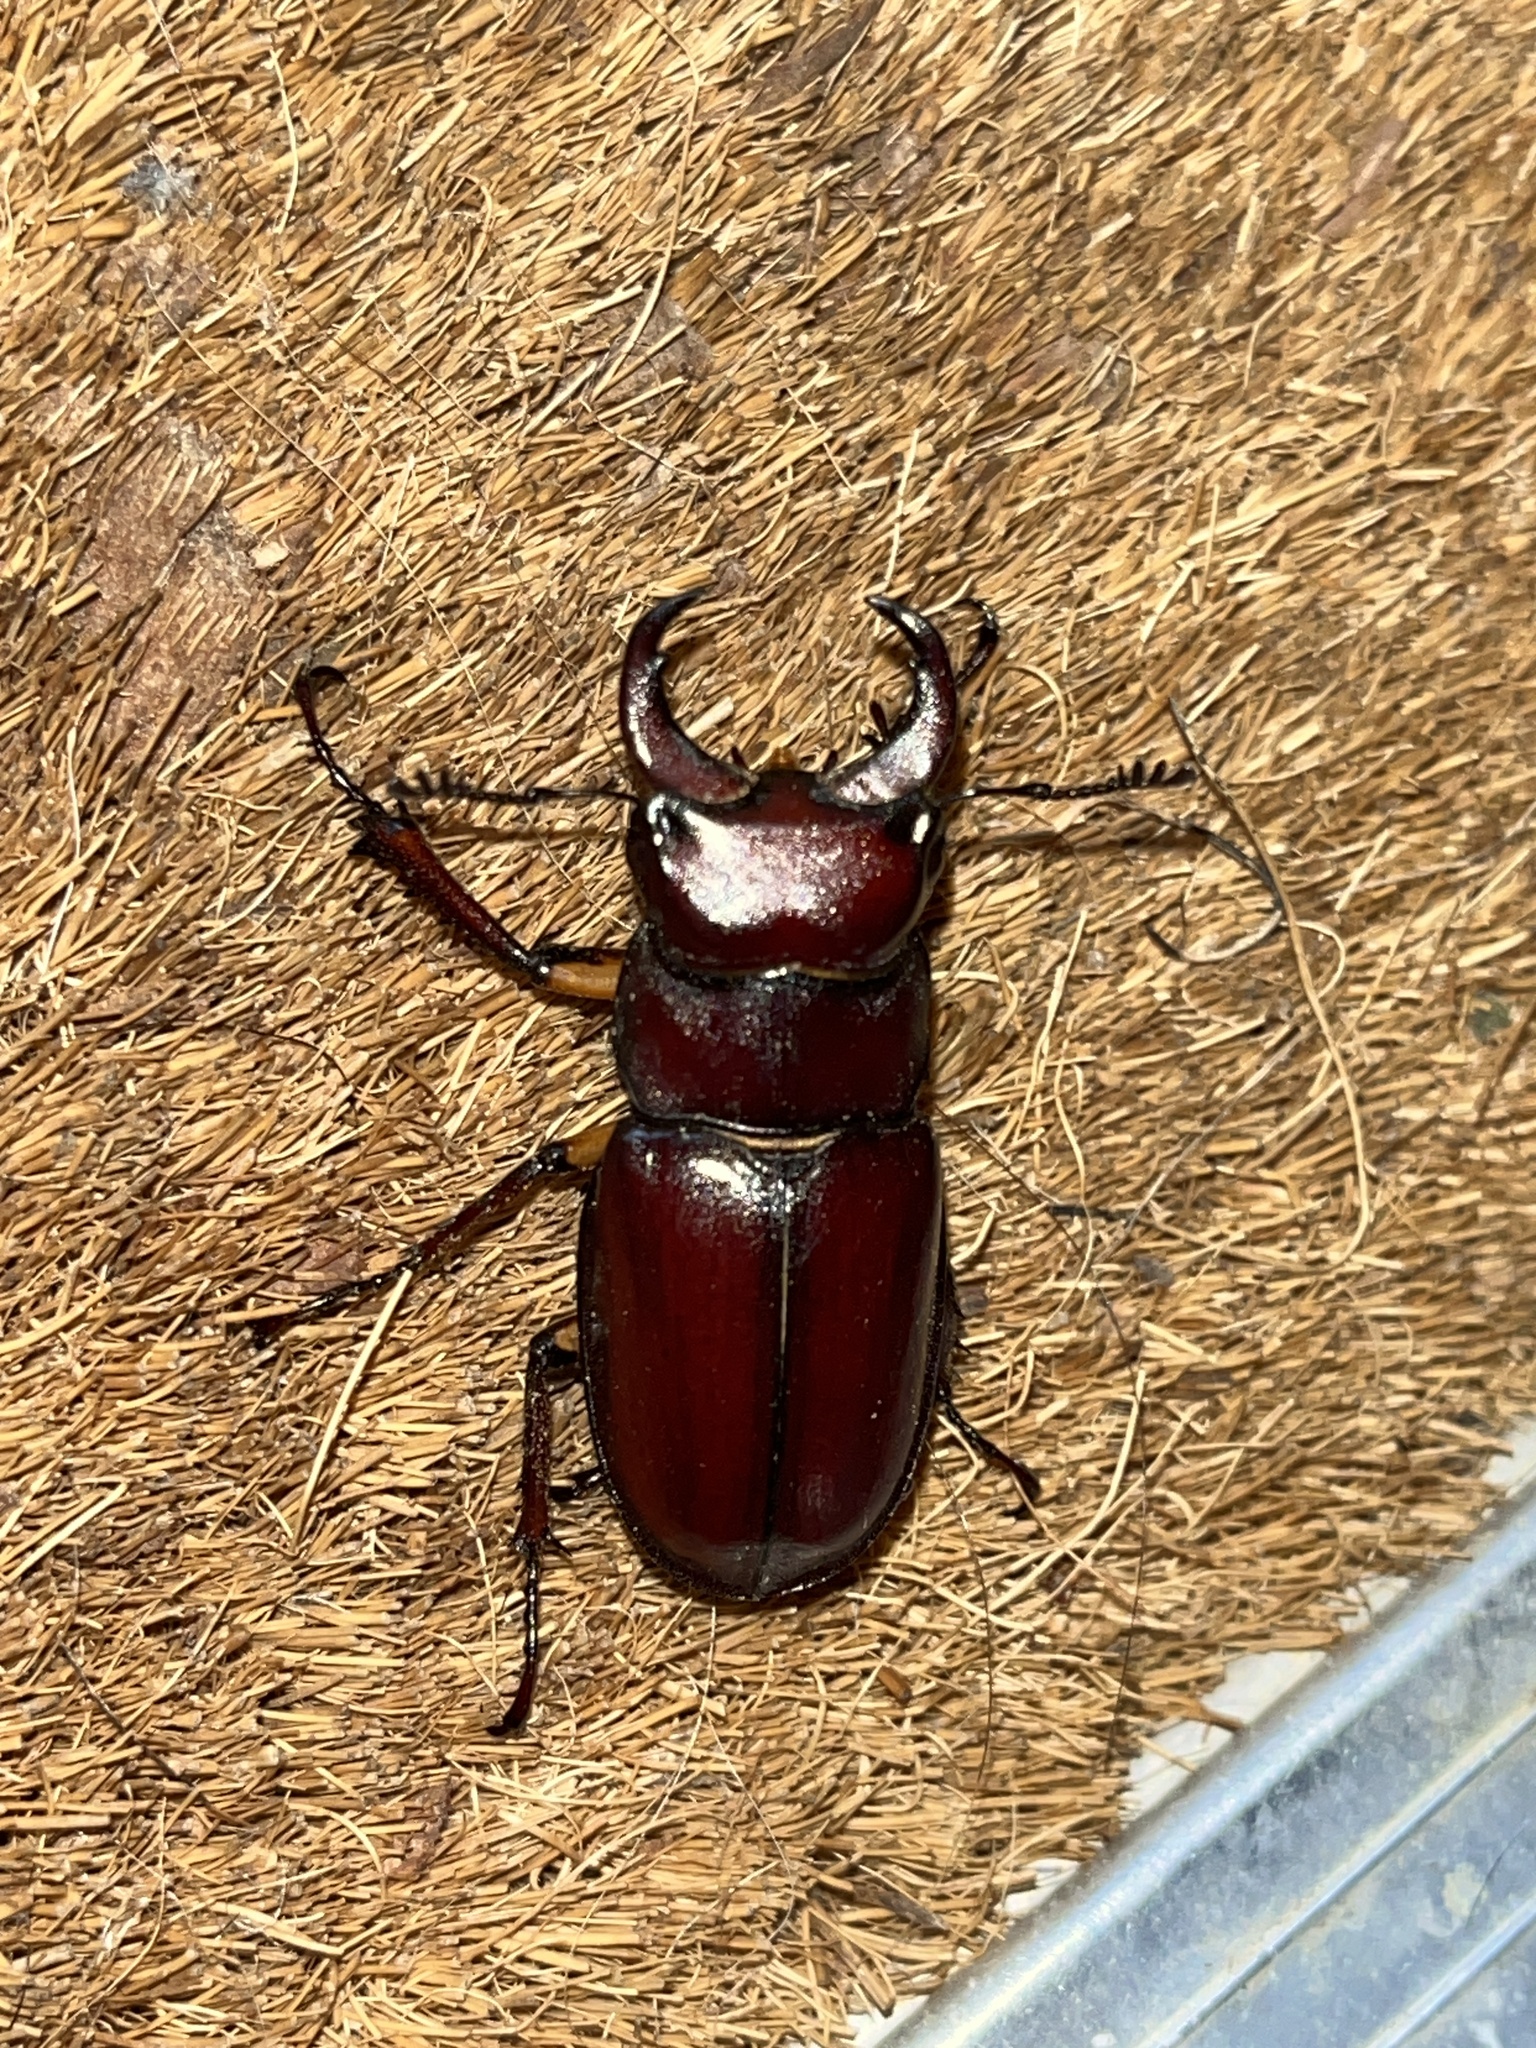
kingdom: Animalia
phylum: Arthropoda
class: Insecta
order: Coleoptera
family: Lucanidae
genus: Lucanus
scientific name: Lucanus capreolus
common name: Stag beetle
